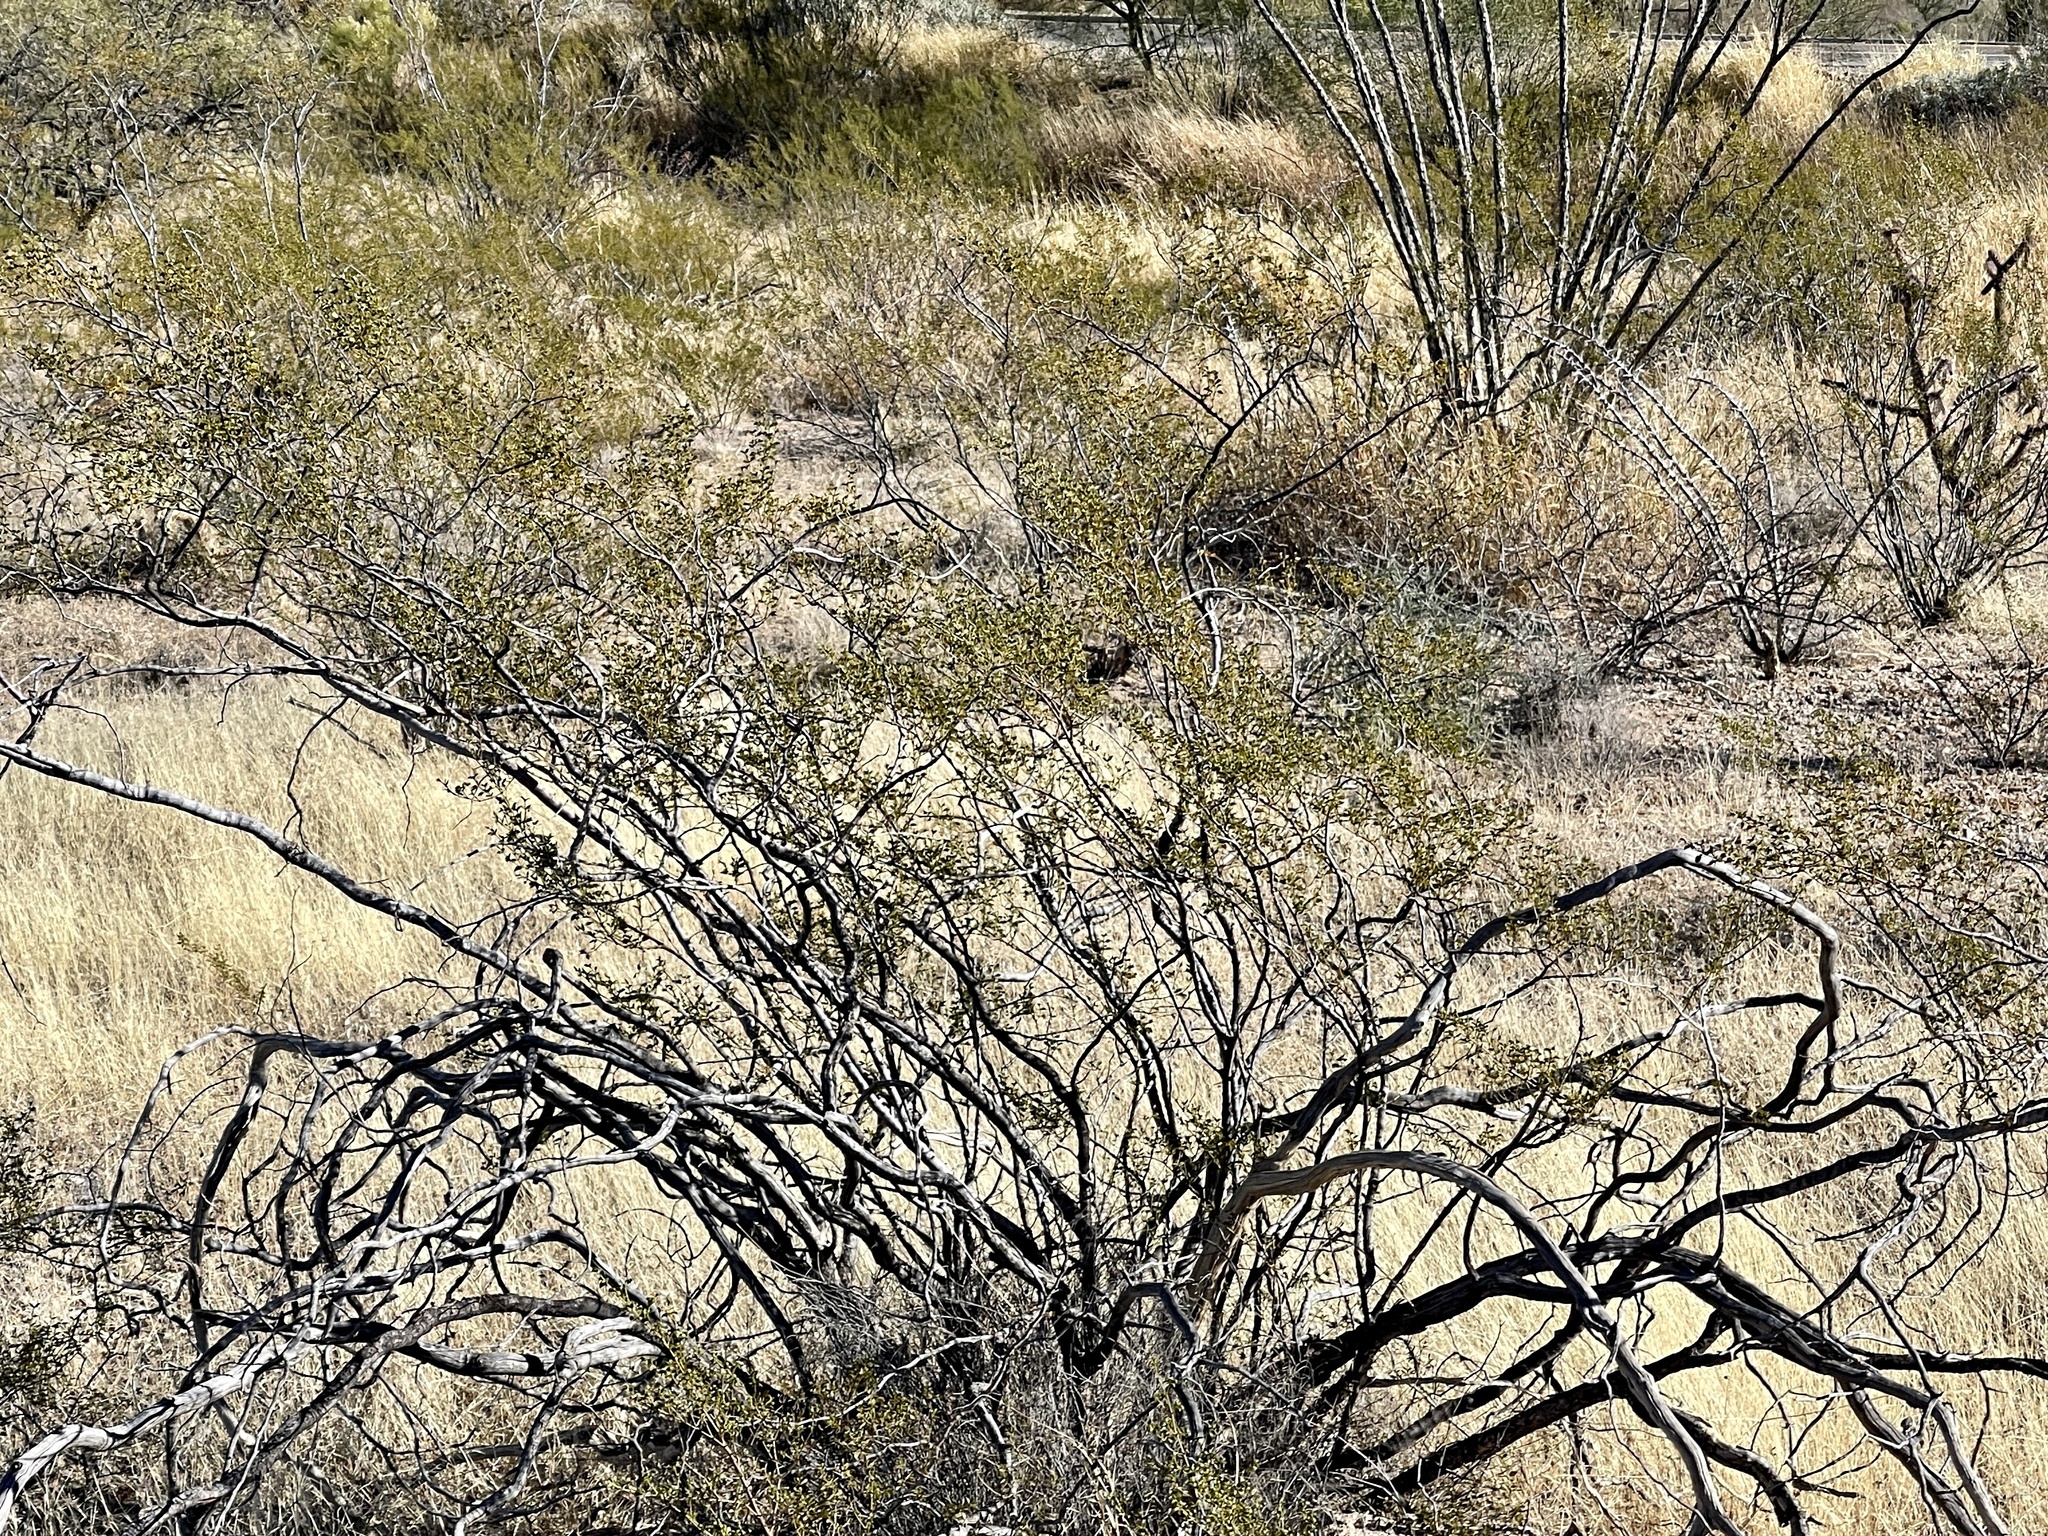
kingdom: Plantae
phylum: Tracheophyta
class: Magnoliopsida
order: Zygophyllales
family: Zygophyllaceae
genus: Larrea
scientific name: Larrea tridentata
